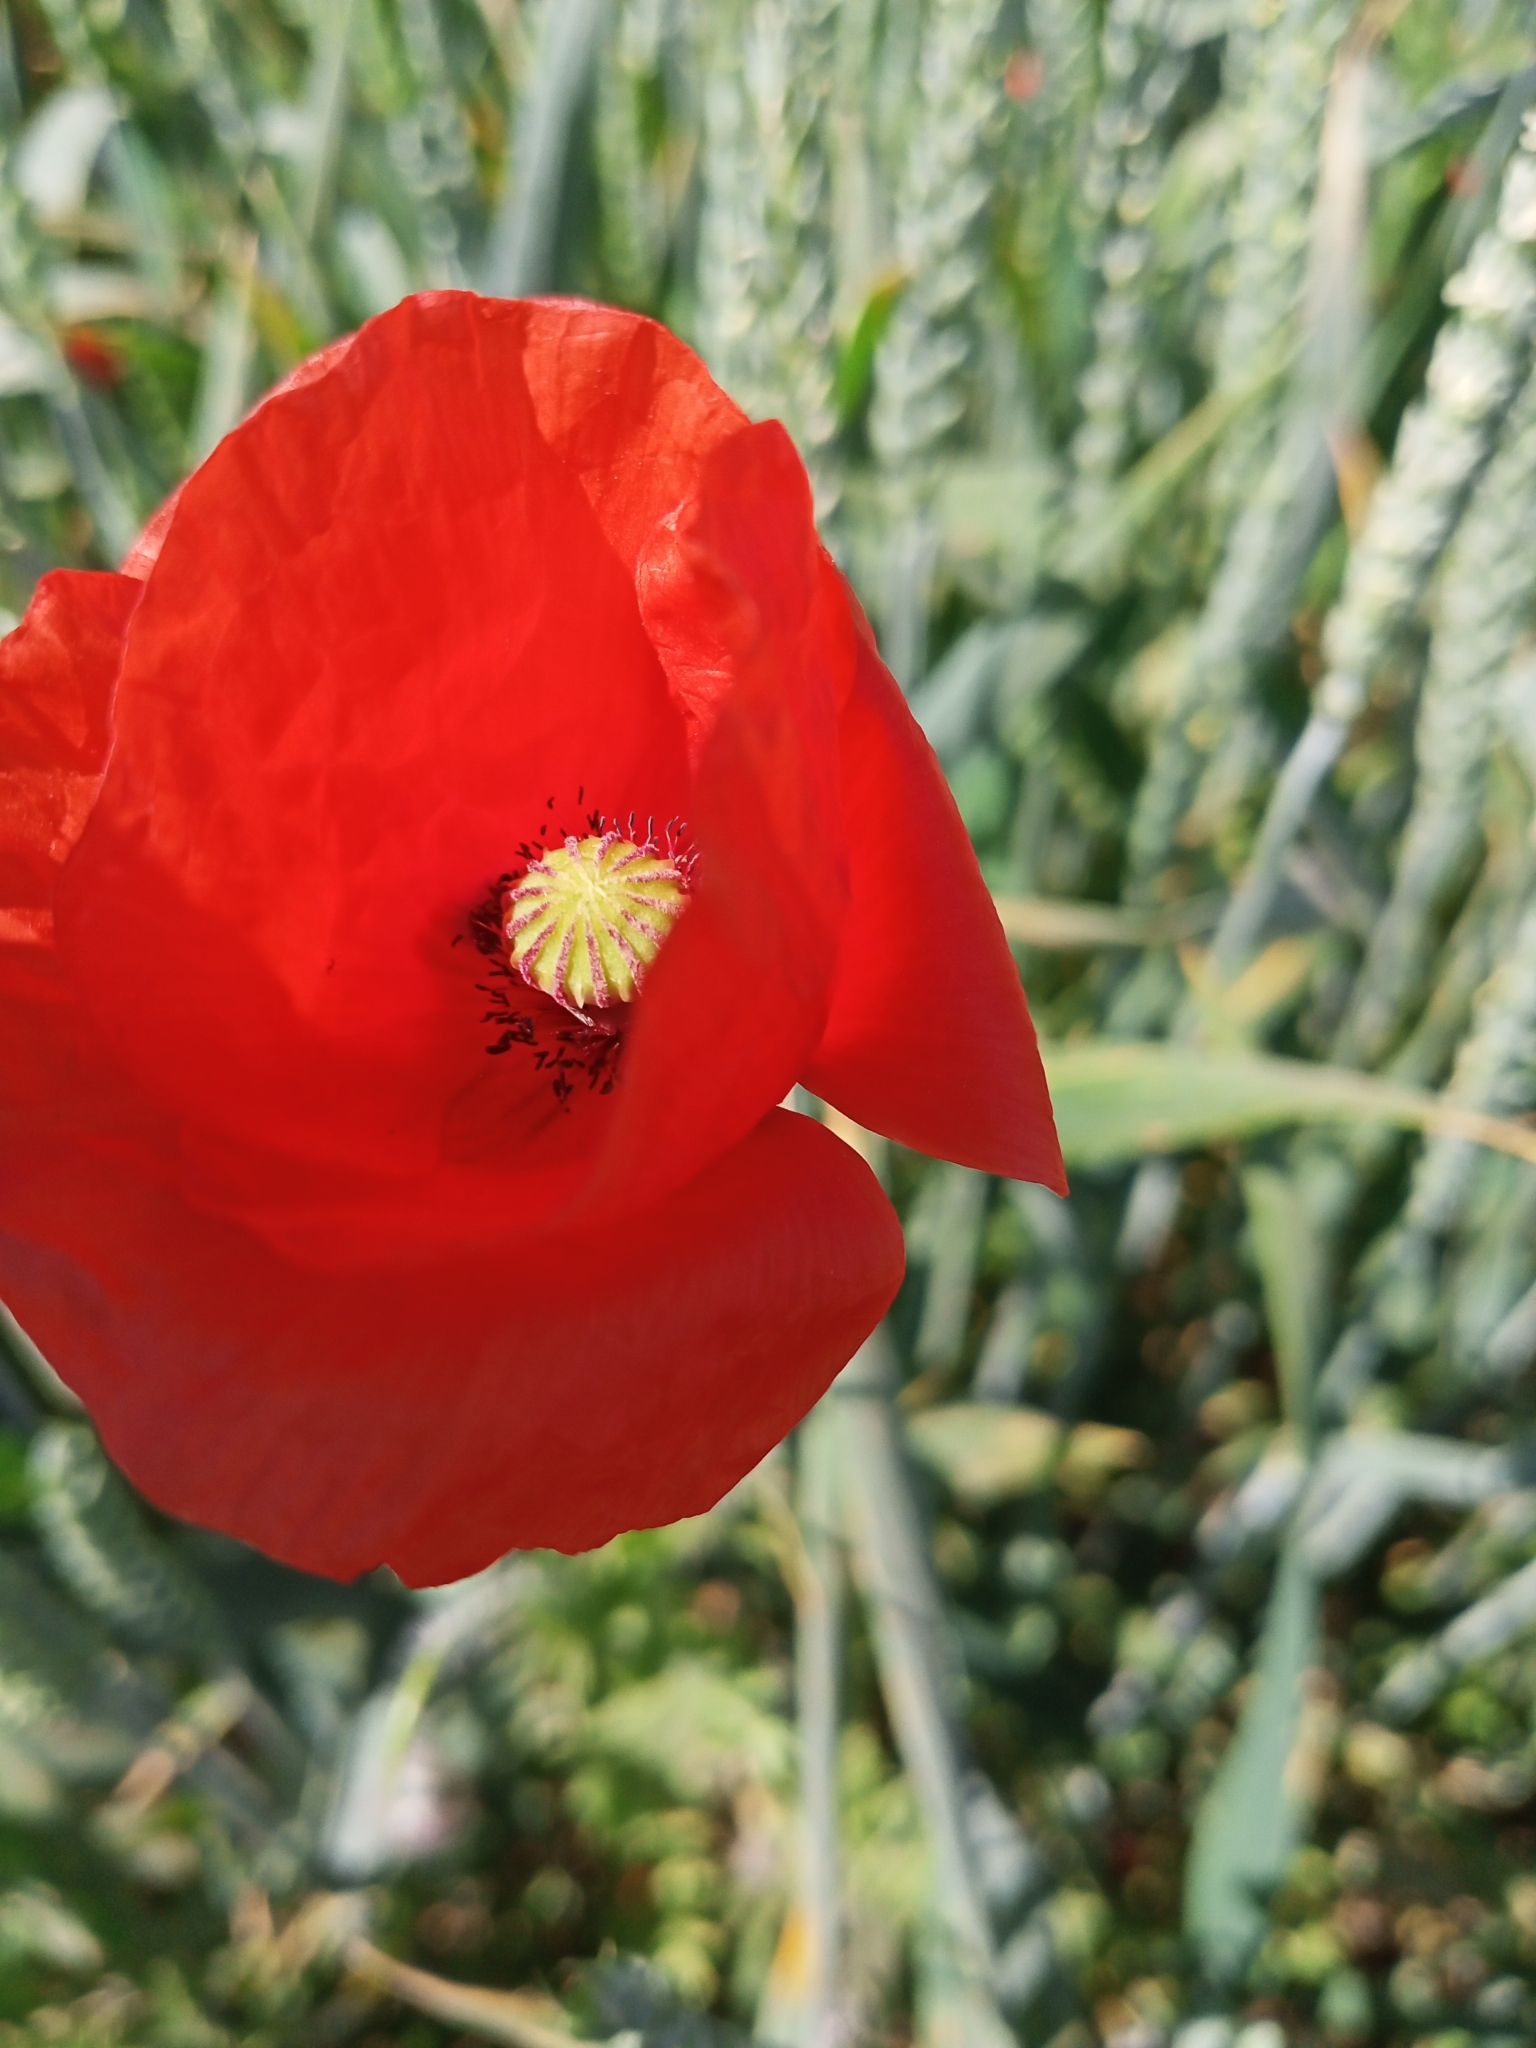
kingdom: Plantae
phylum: Tracheophyta
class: Magnoliopsida
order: Ranunculales
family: Papaveraceae
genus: Papaver
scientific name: Papaver rhoeas
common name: Corn poppy
